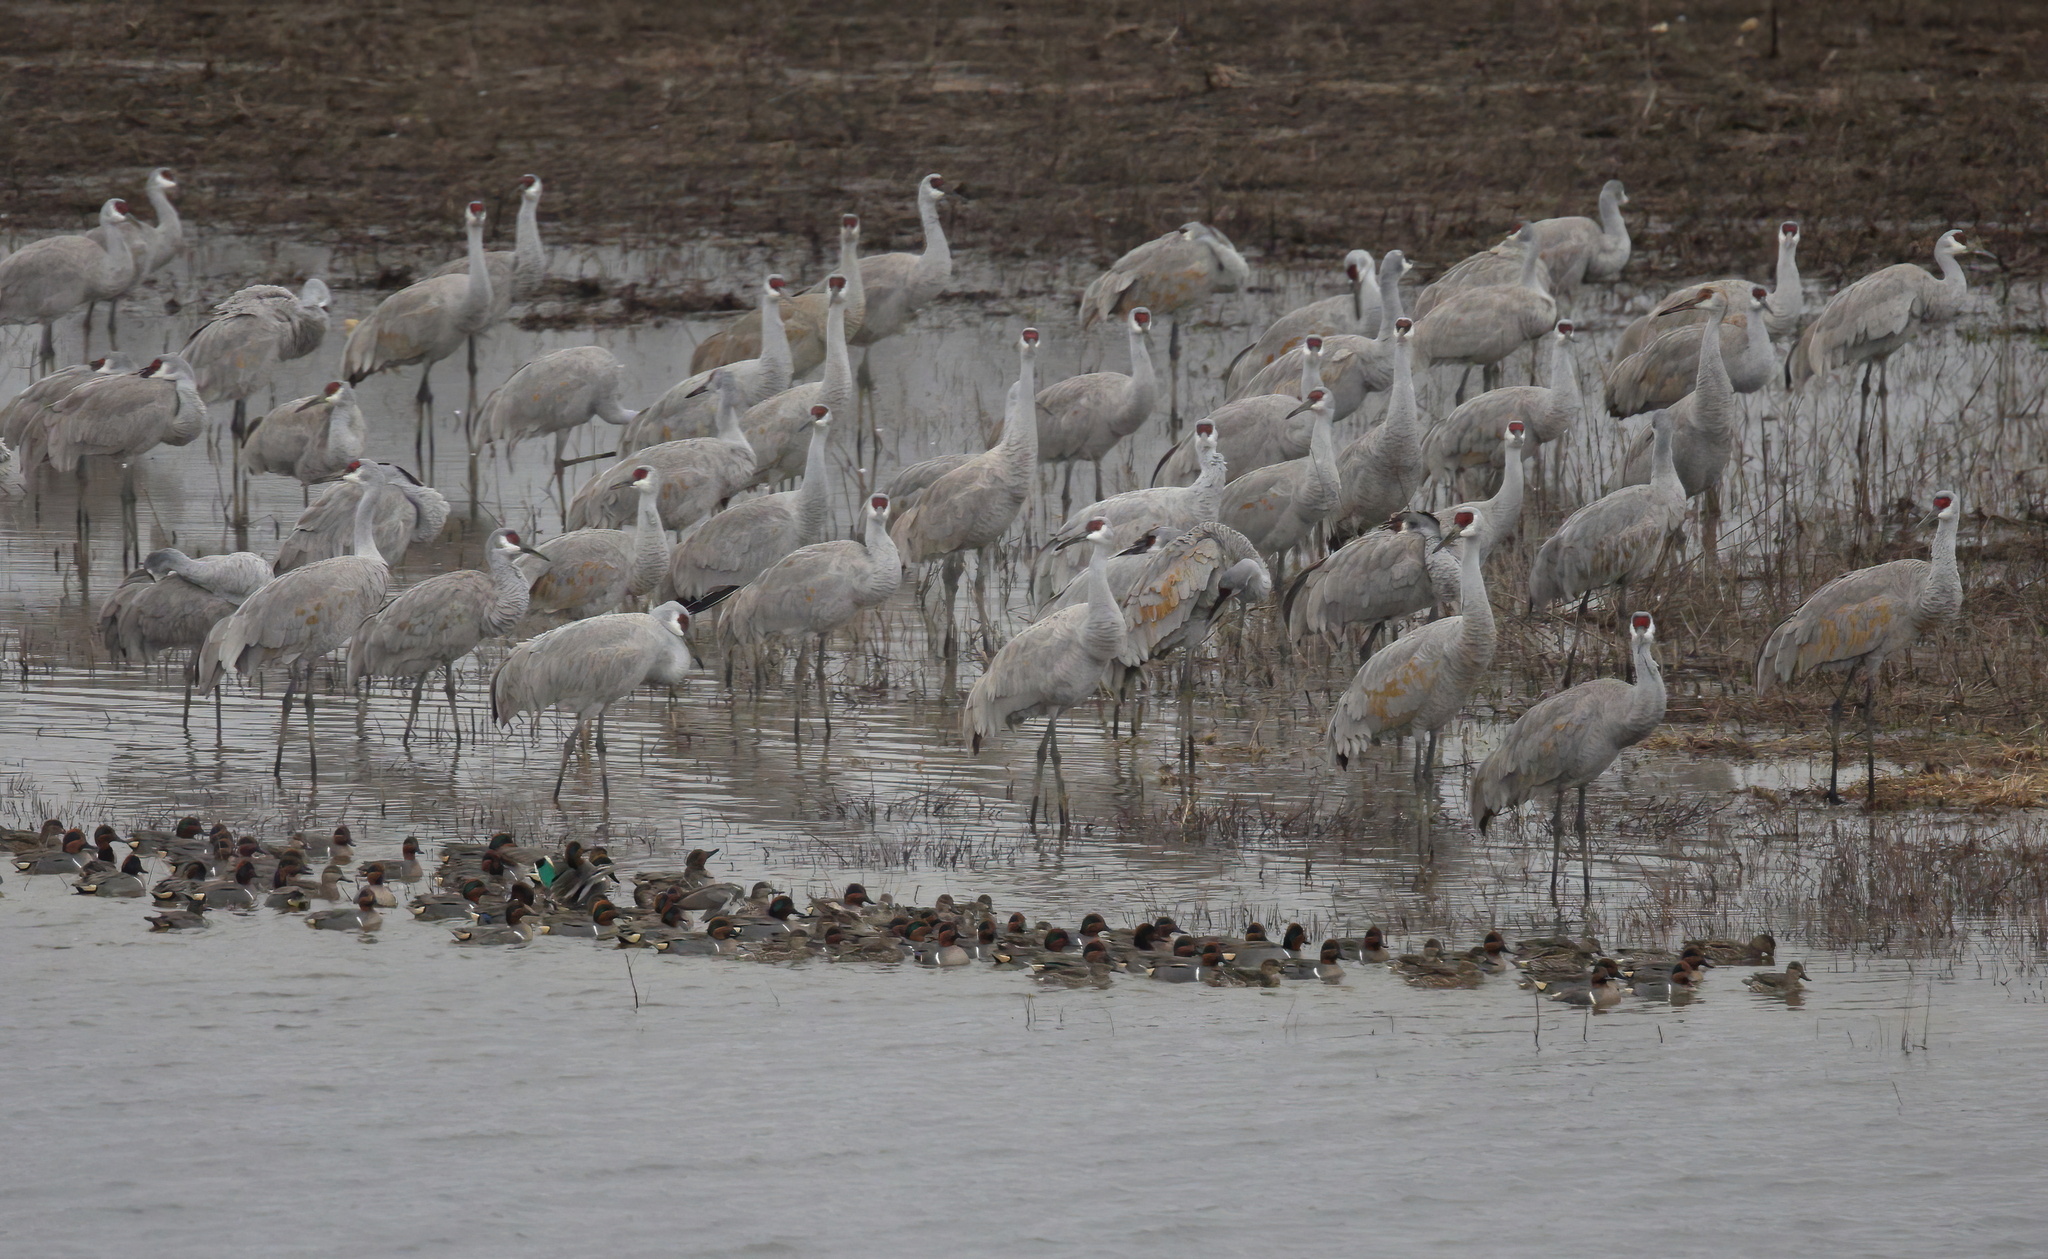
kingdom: Animalia
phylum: Chordata
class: Aves
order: Anseriformes
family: Anatidae
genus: Anas
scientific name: Anas crecca
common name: Eurasian teal
